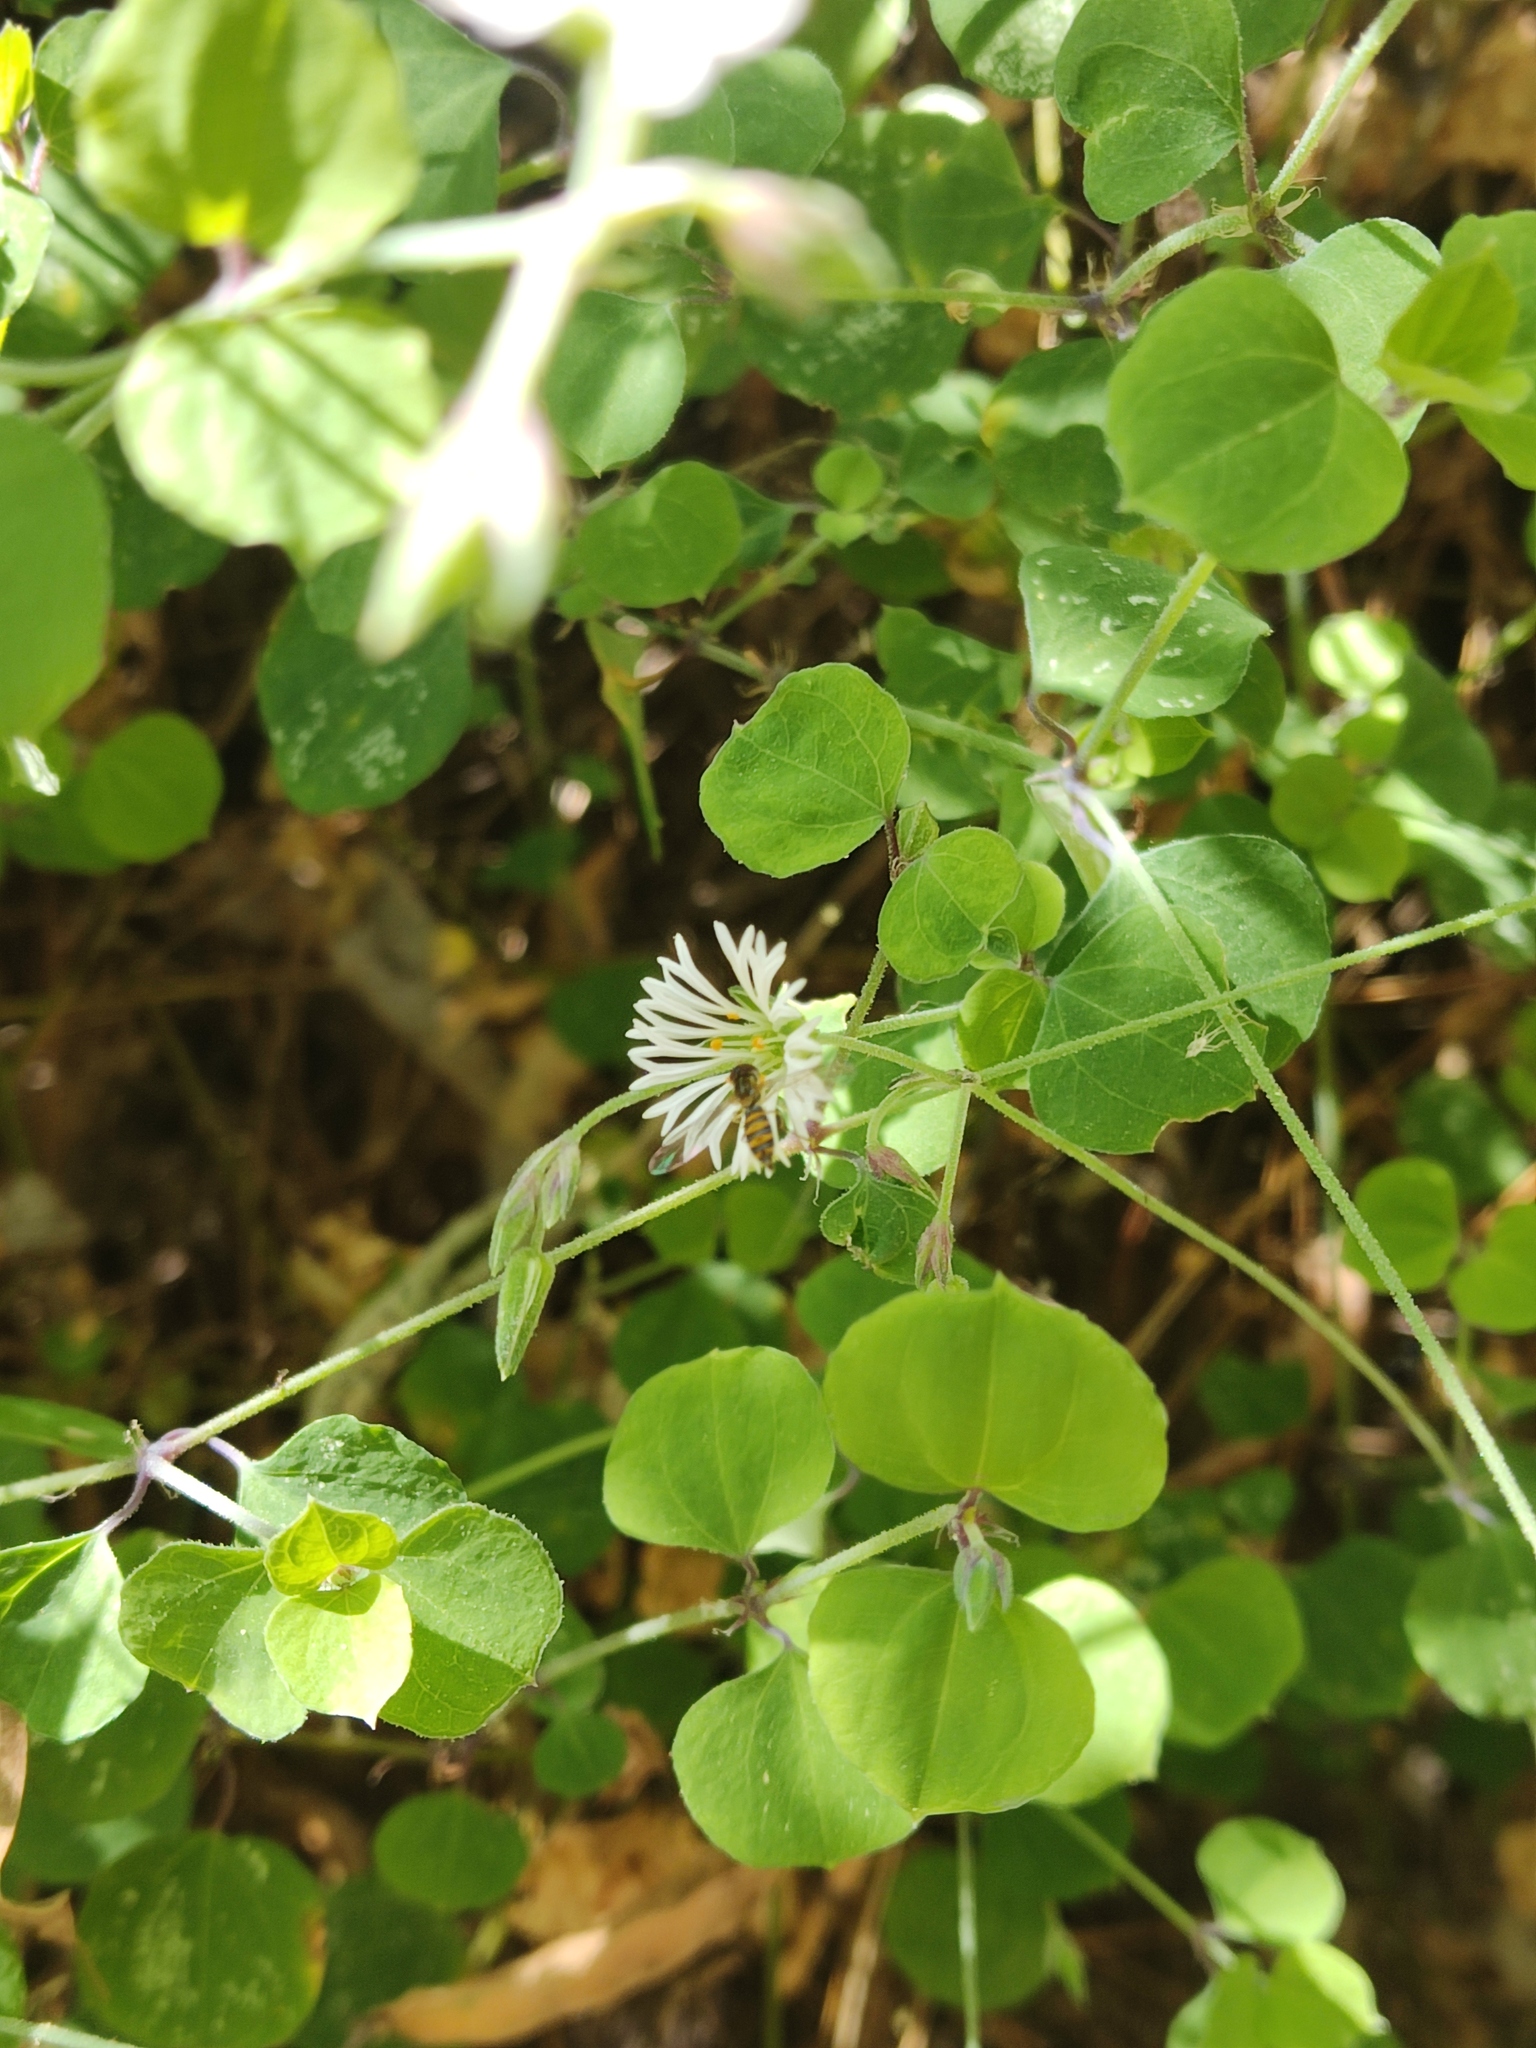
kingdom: Plantae
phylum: Tracheophyta
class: Magnoliopsida
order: Caryophyllales
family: Caryophyllaceae
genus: Drymaria
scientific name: Drymaria excisa
